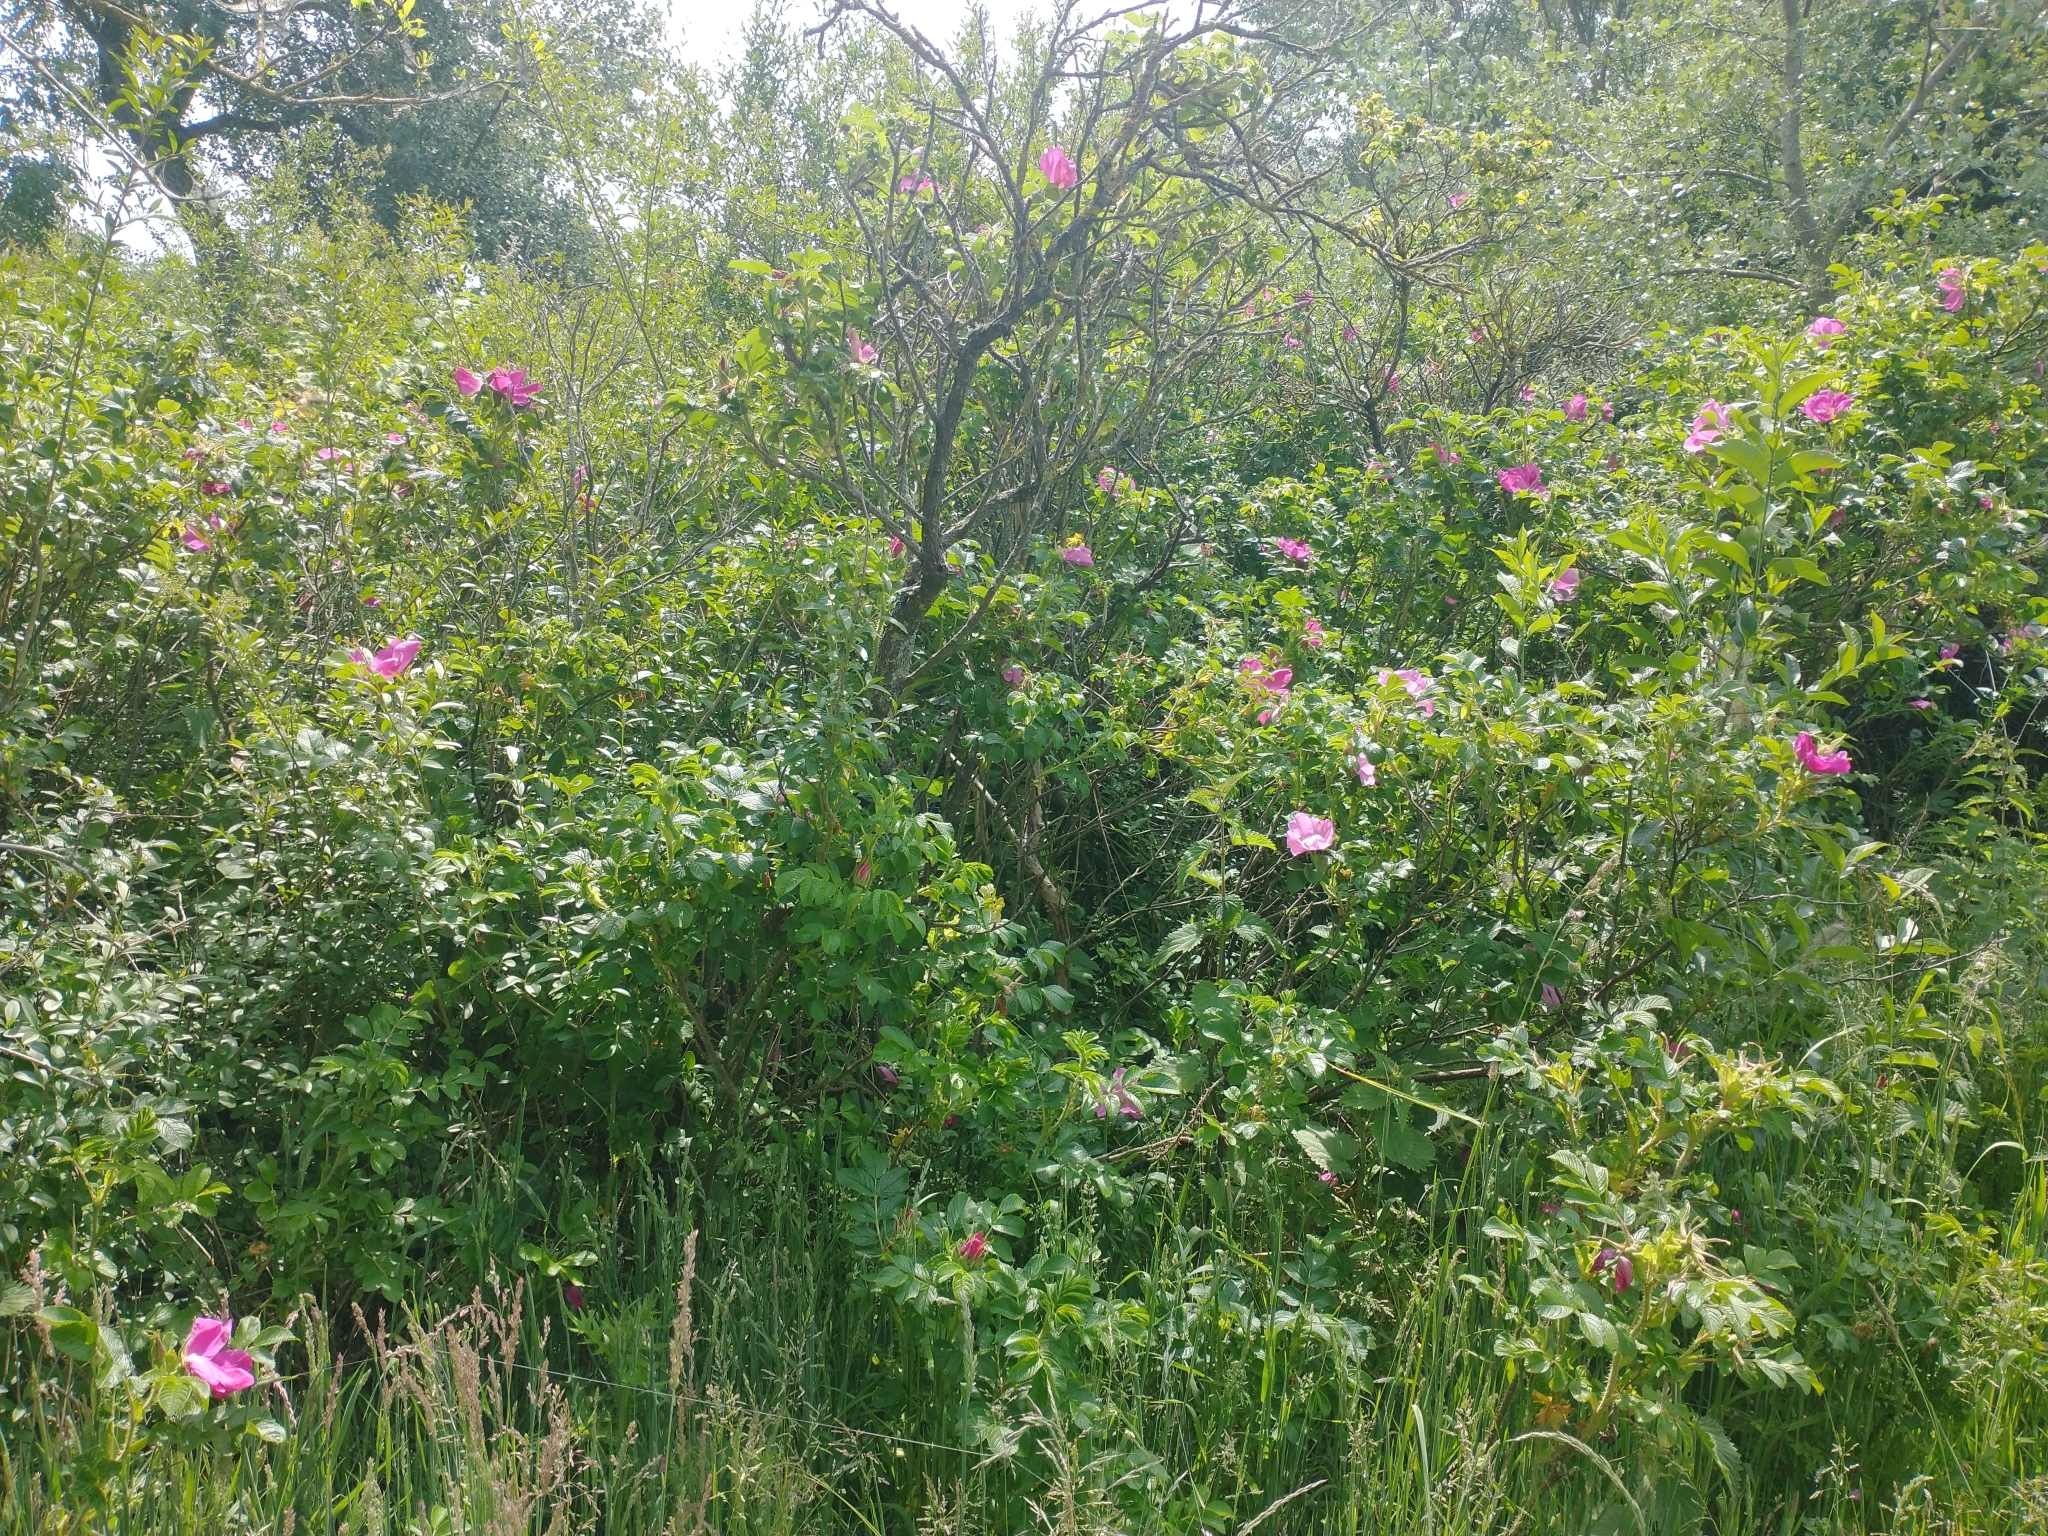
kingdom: Plantae
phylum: Tracheophyta
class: Magnoliopsida
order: Rosales
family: Rosaceae
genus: Rosa
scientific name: Rosa rugosa
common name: Japanese rose
